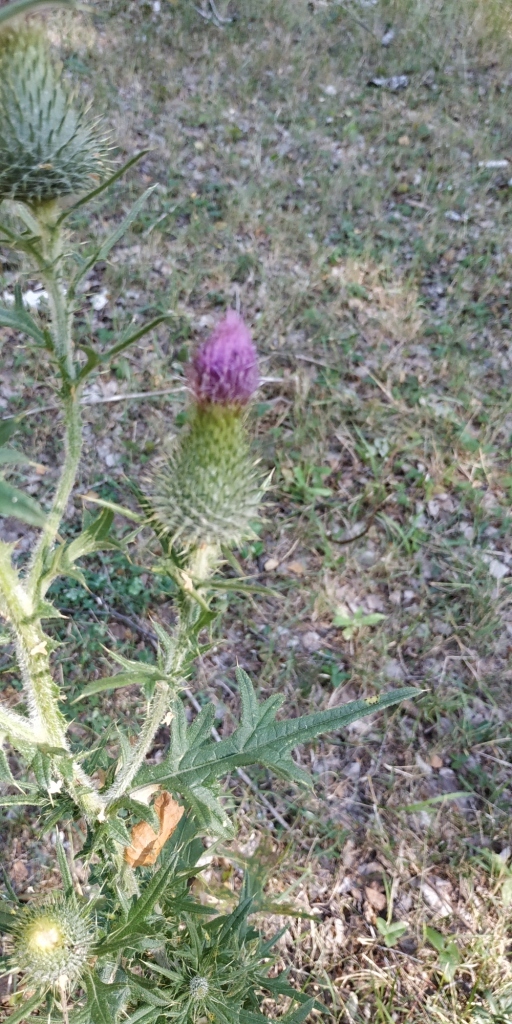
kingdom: Plantae
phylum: Tracheophyta
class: Magnoliopsida
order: Asterales
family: Asteraceae
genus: Cirsium
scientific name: Cirsium vulgare
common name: Bull thistle
